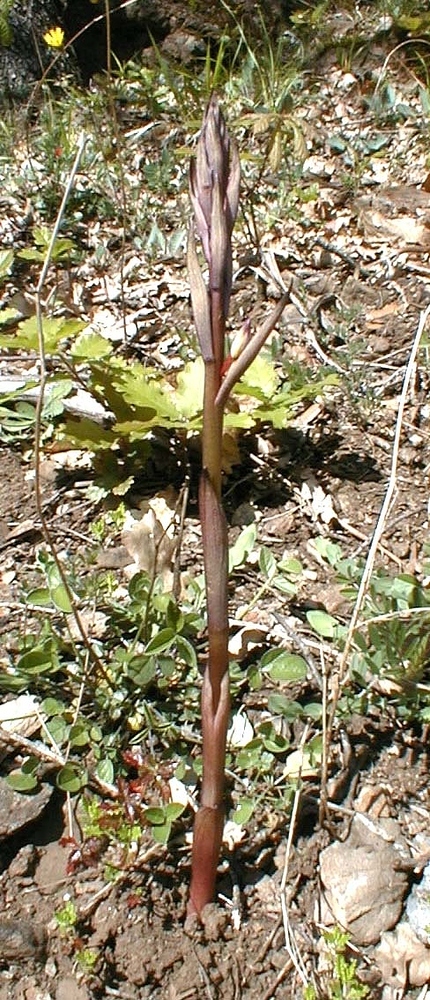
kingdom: Plantae
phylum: Tracheophyta
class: Liliopsida
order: Asparagales
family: Orchidaceae
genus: Limodorum
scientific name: Limodorum abortivum
